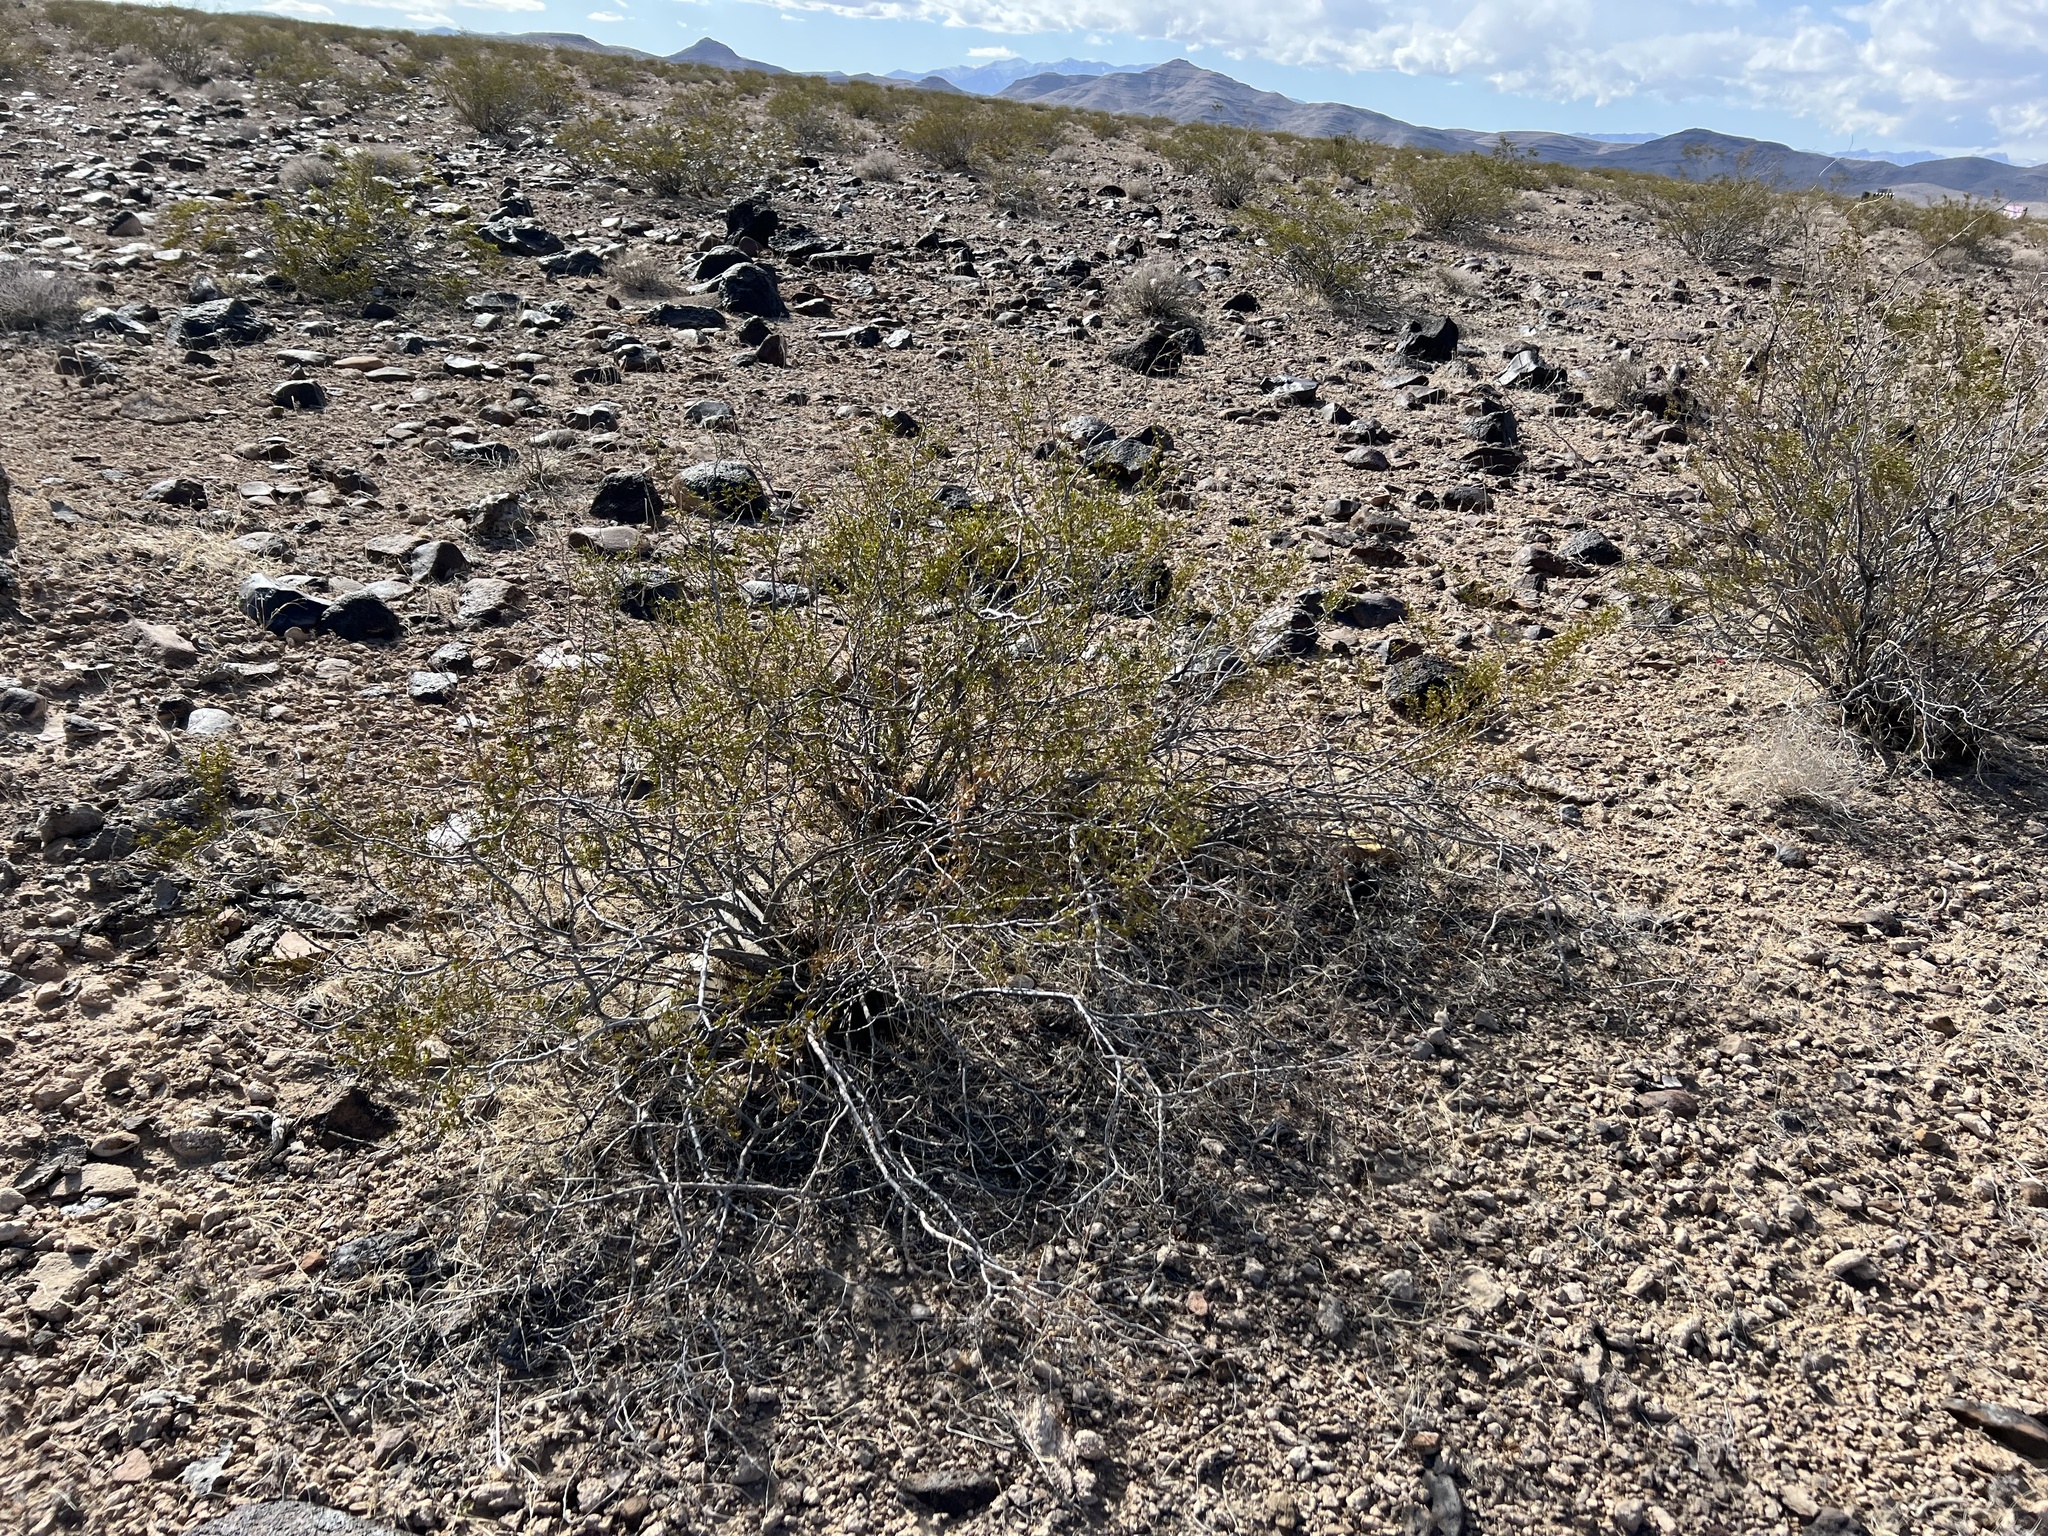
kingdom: Plantae
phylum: Tracheophyta
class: Magnoliopsida
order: Zygophyllales
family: Zygophyllaceae
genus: Larrea
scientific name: Larrea tridentata
